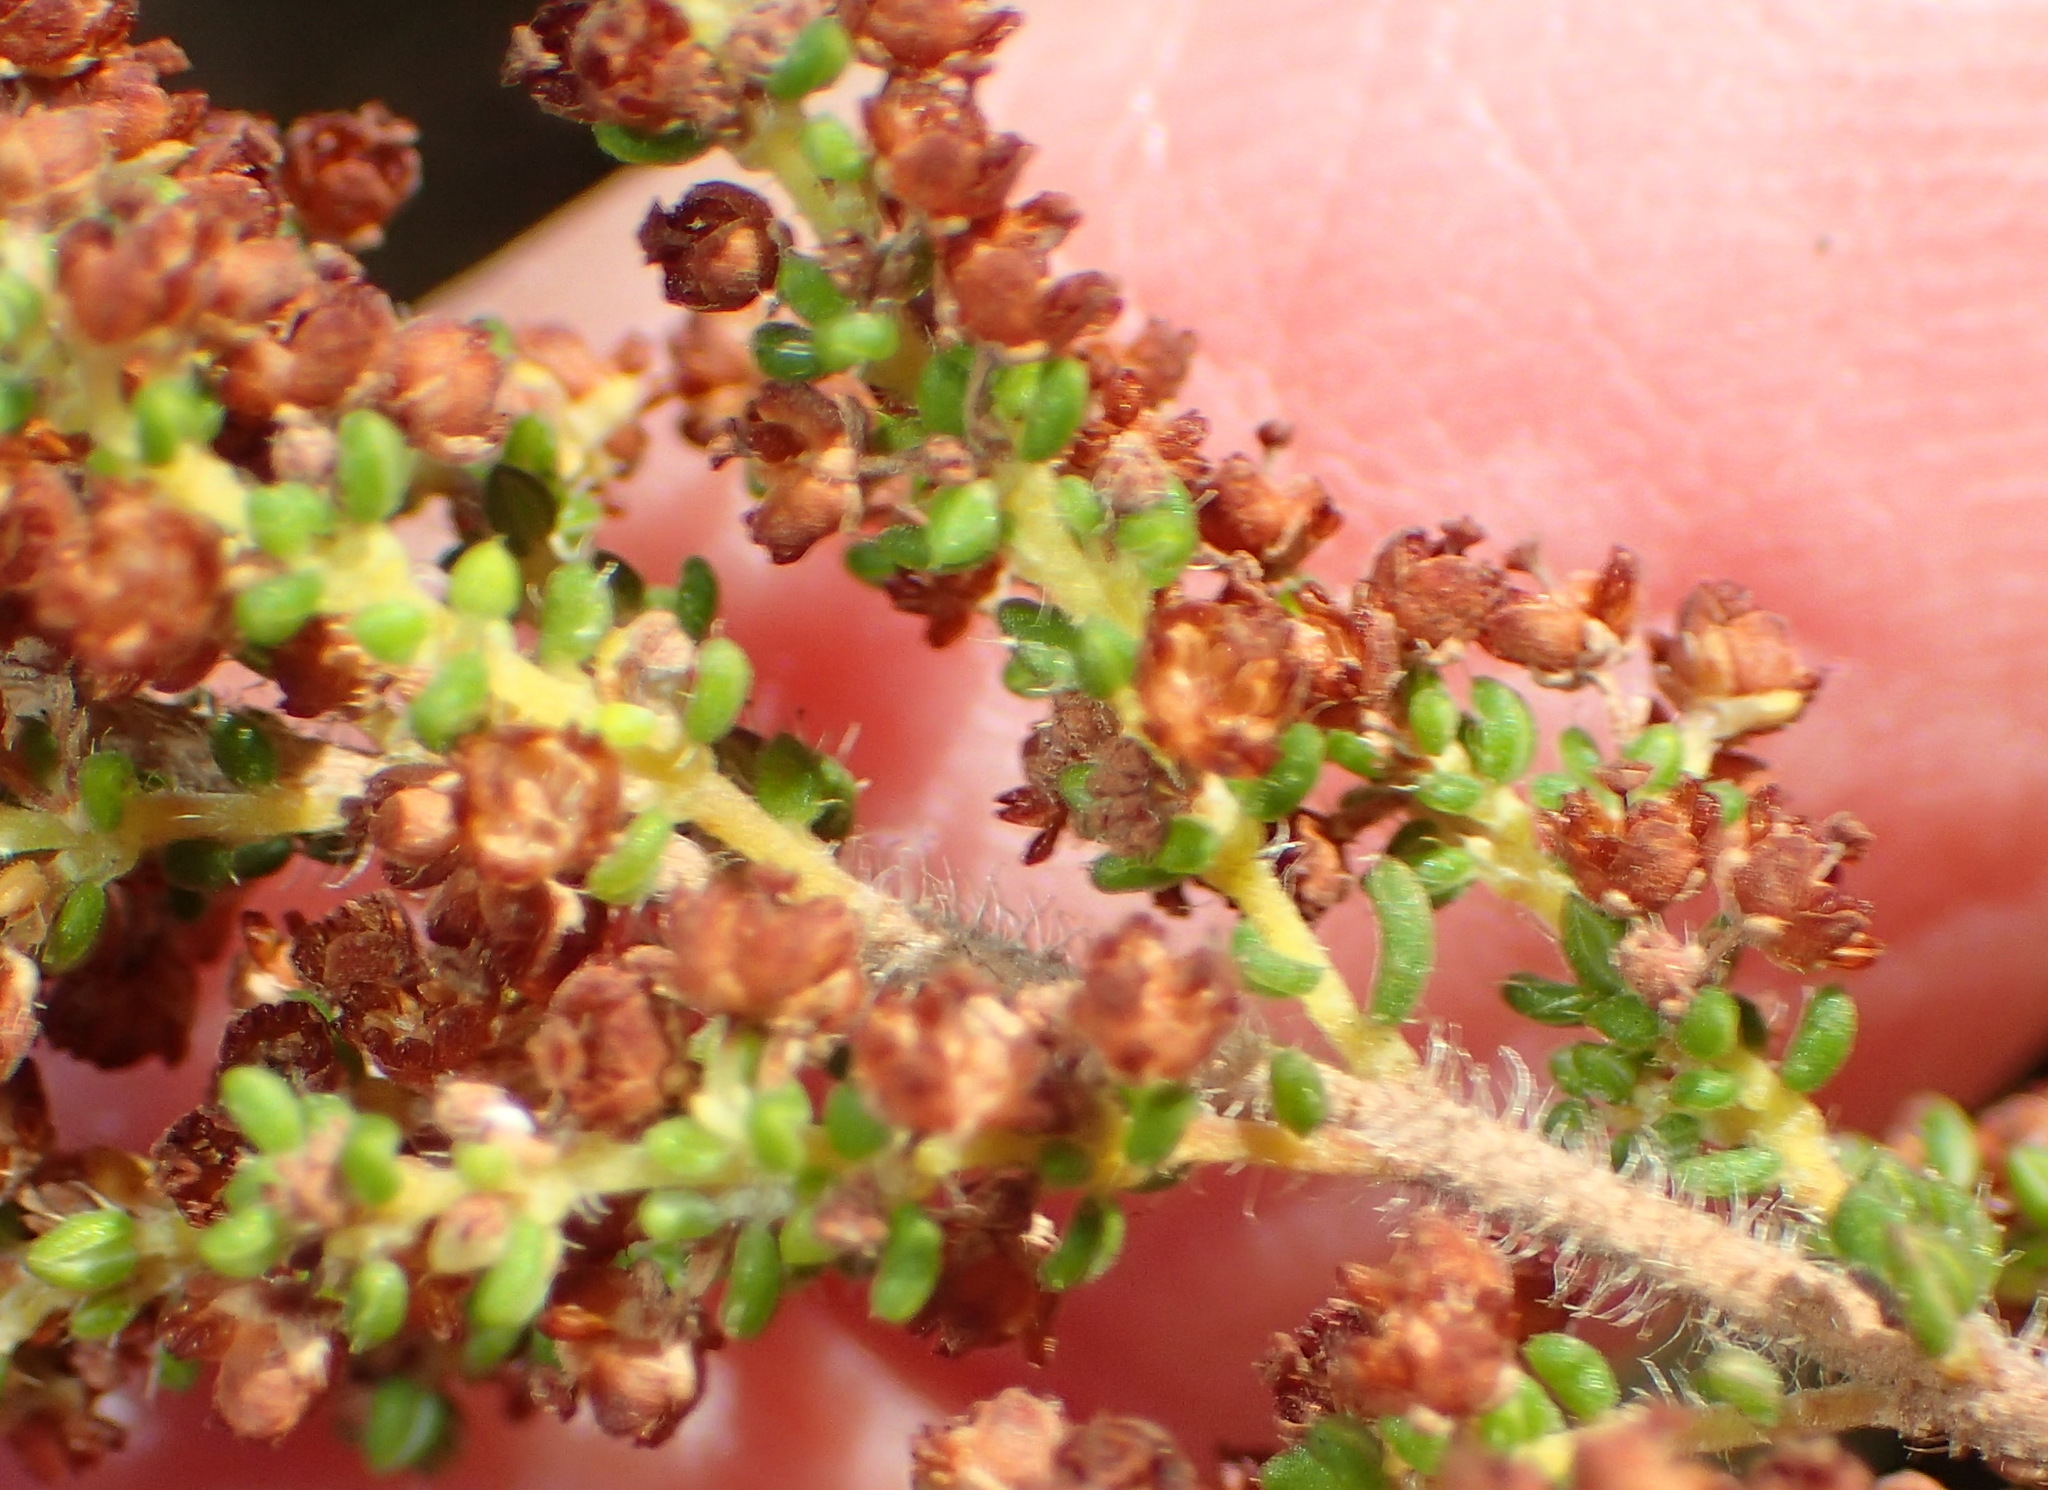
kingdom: Plantae
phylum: Tracheophyta
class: Magnoliopsida
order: Ericales
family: Ericaceae
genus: Erica
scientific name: Erica leucopelta
